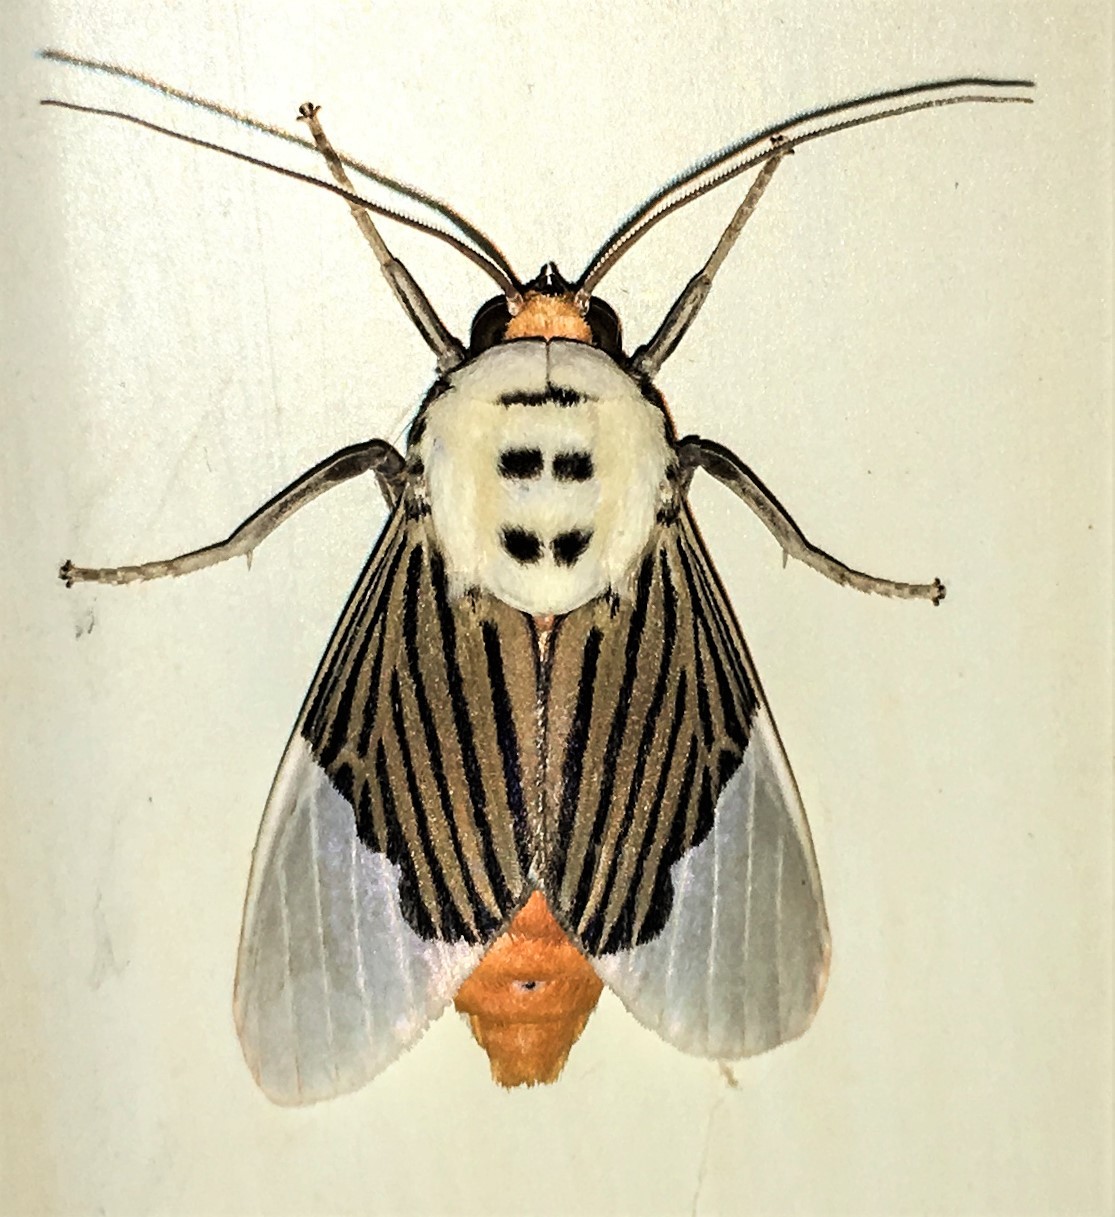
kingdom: Animalia
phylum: Arthropoda
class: Insecta
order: Lepidoptera
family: Erebidae
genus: Ischnognatha
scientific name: Ischnognatha semiopalina
